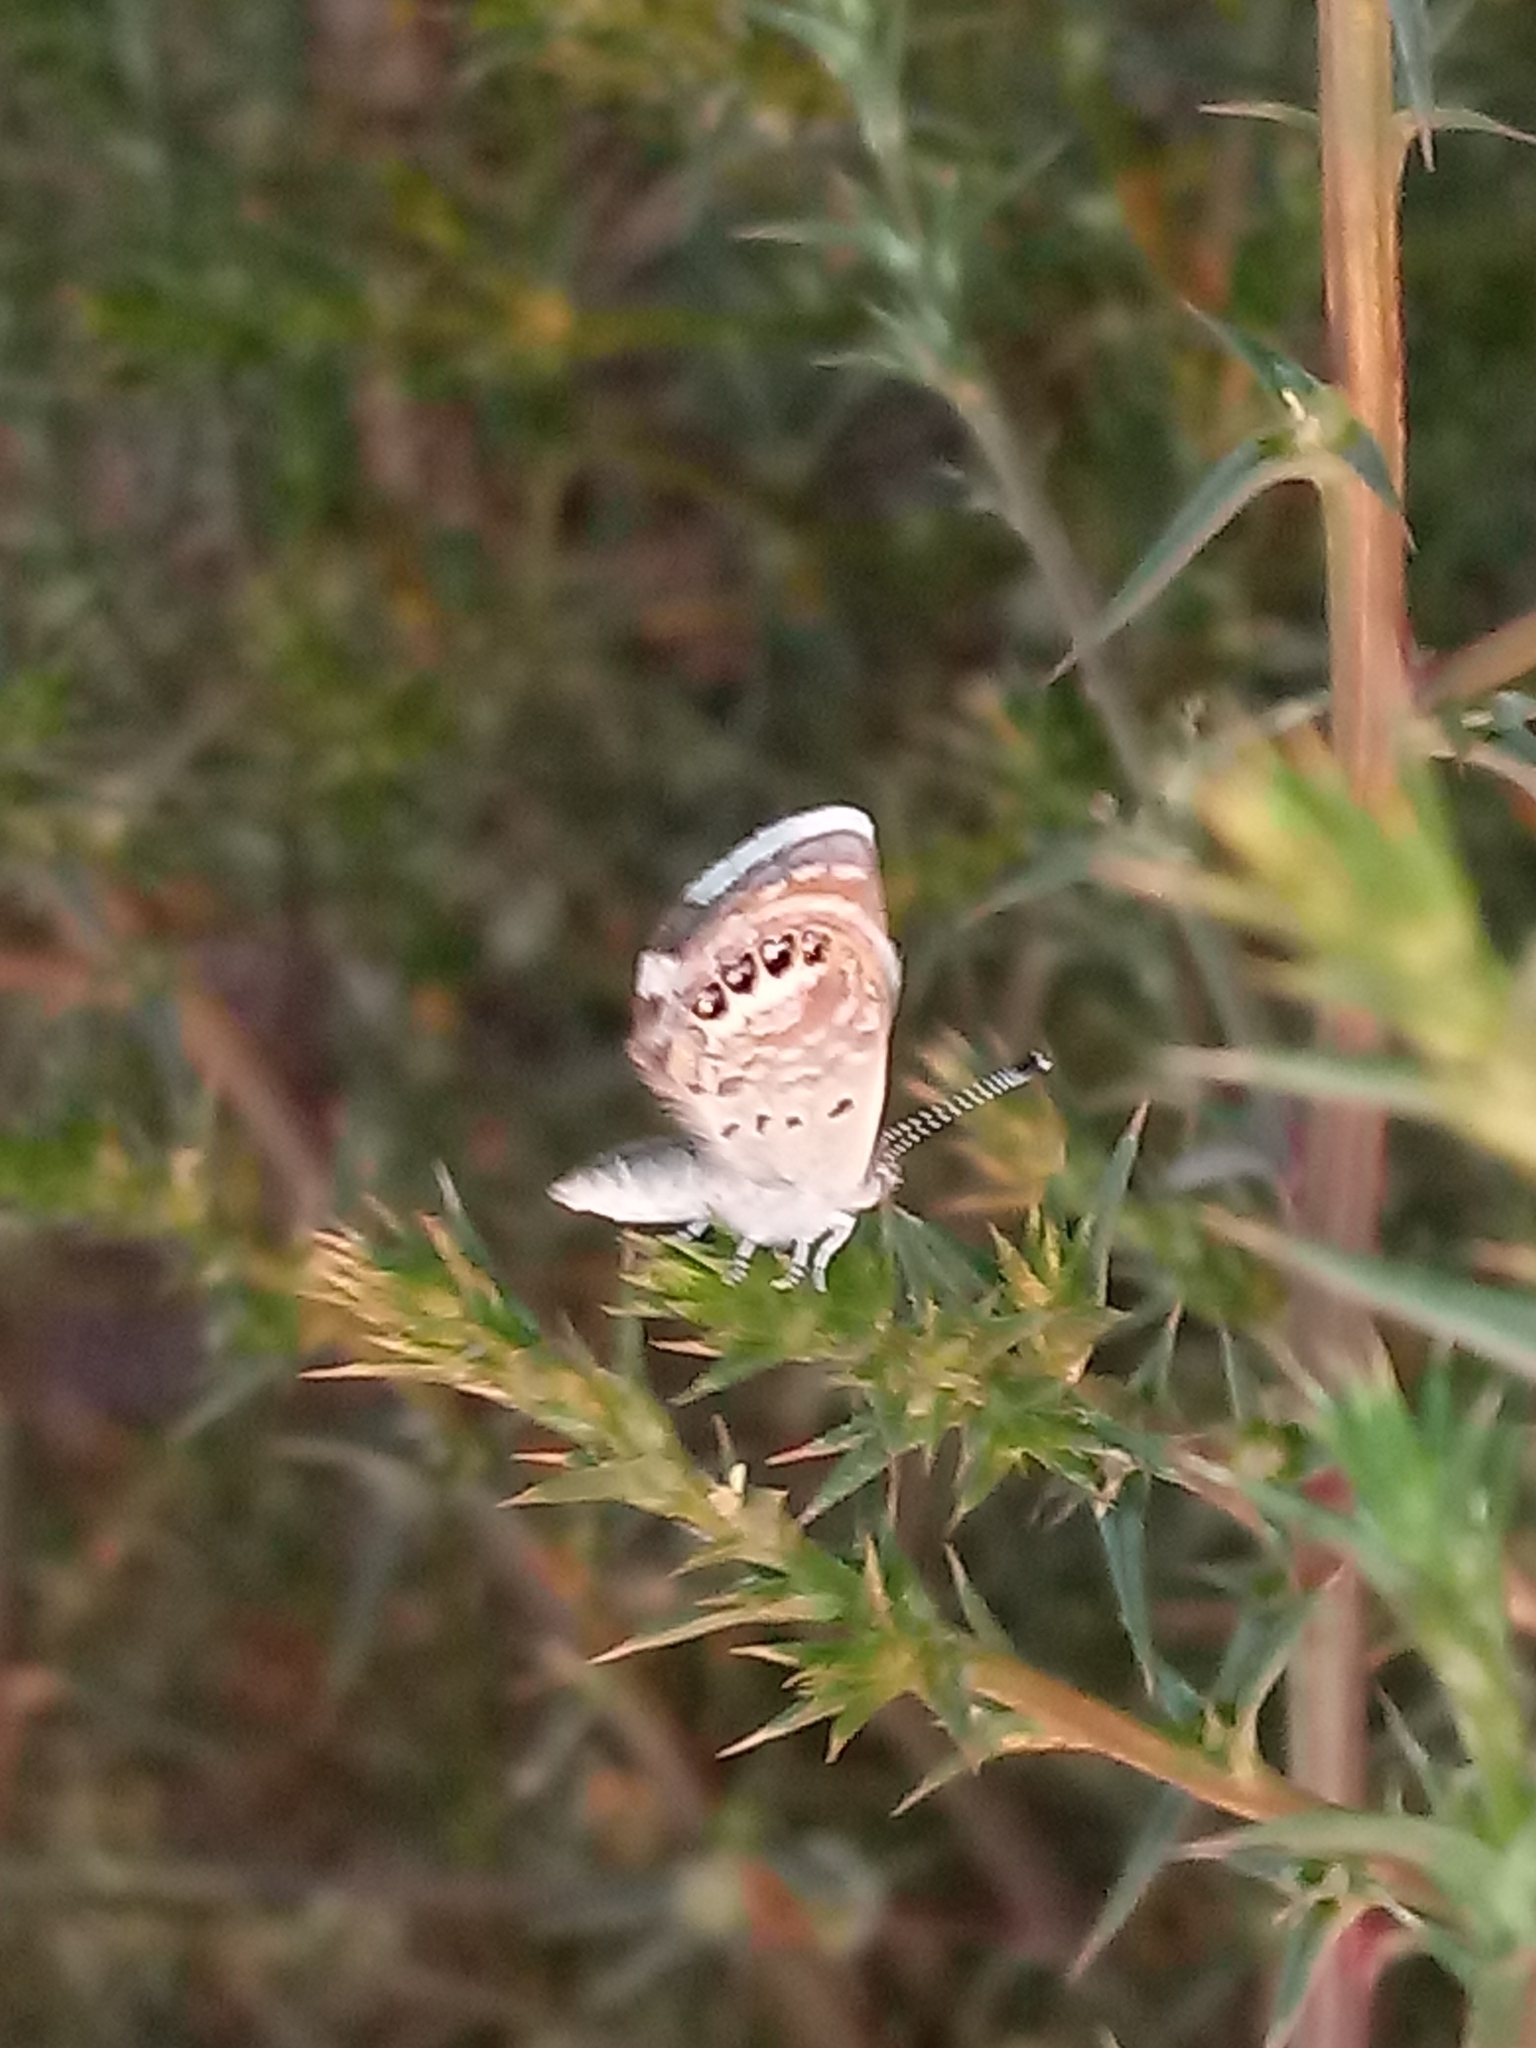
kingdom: Animalia
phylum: Arthropoda
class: Insecta
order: Lepidoptera
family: Lycaenidae
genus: Brephidium
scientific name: Brephidium exilis
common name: Pygmy blue
